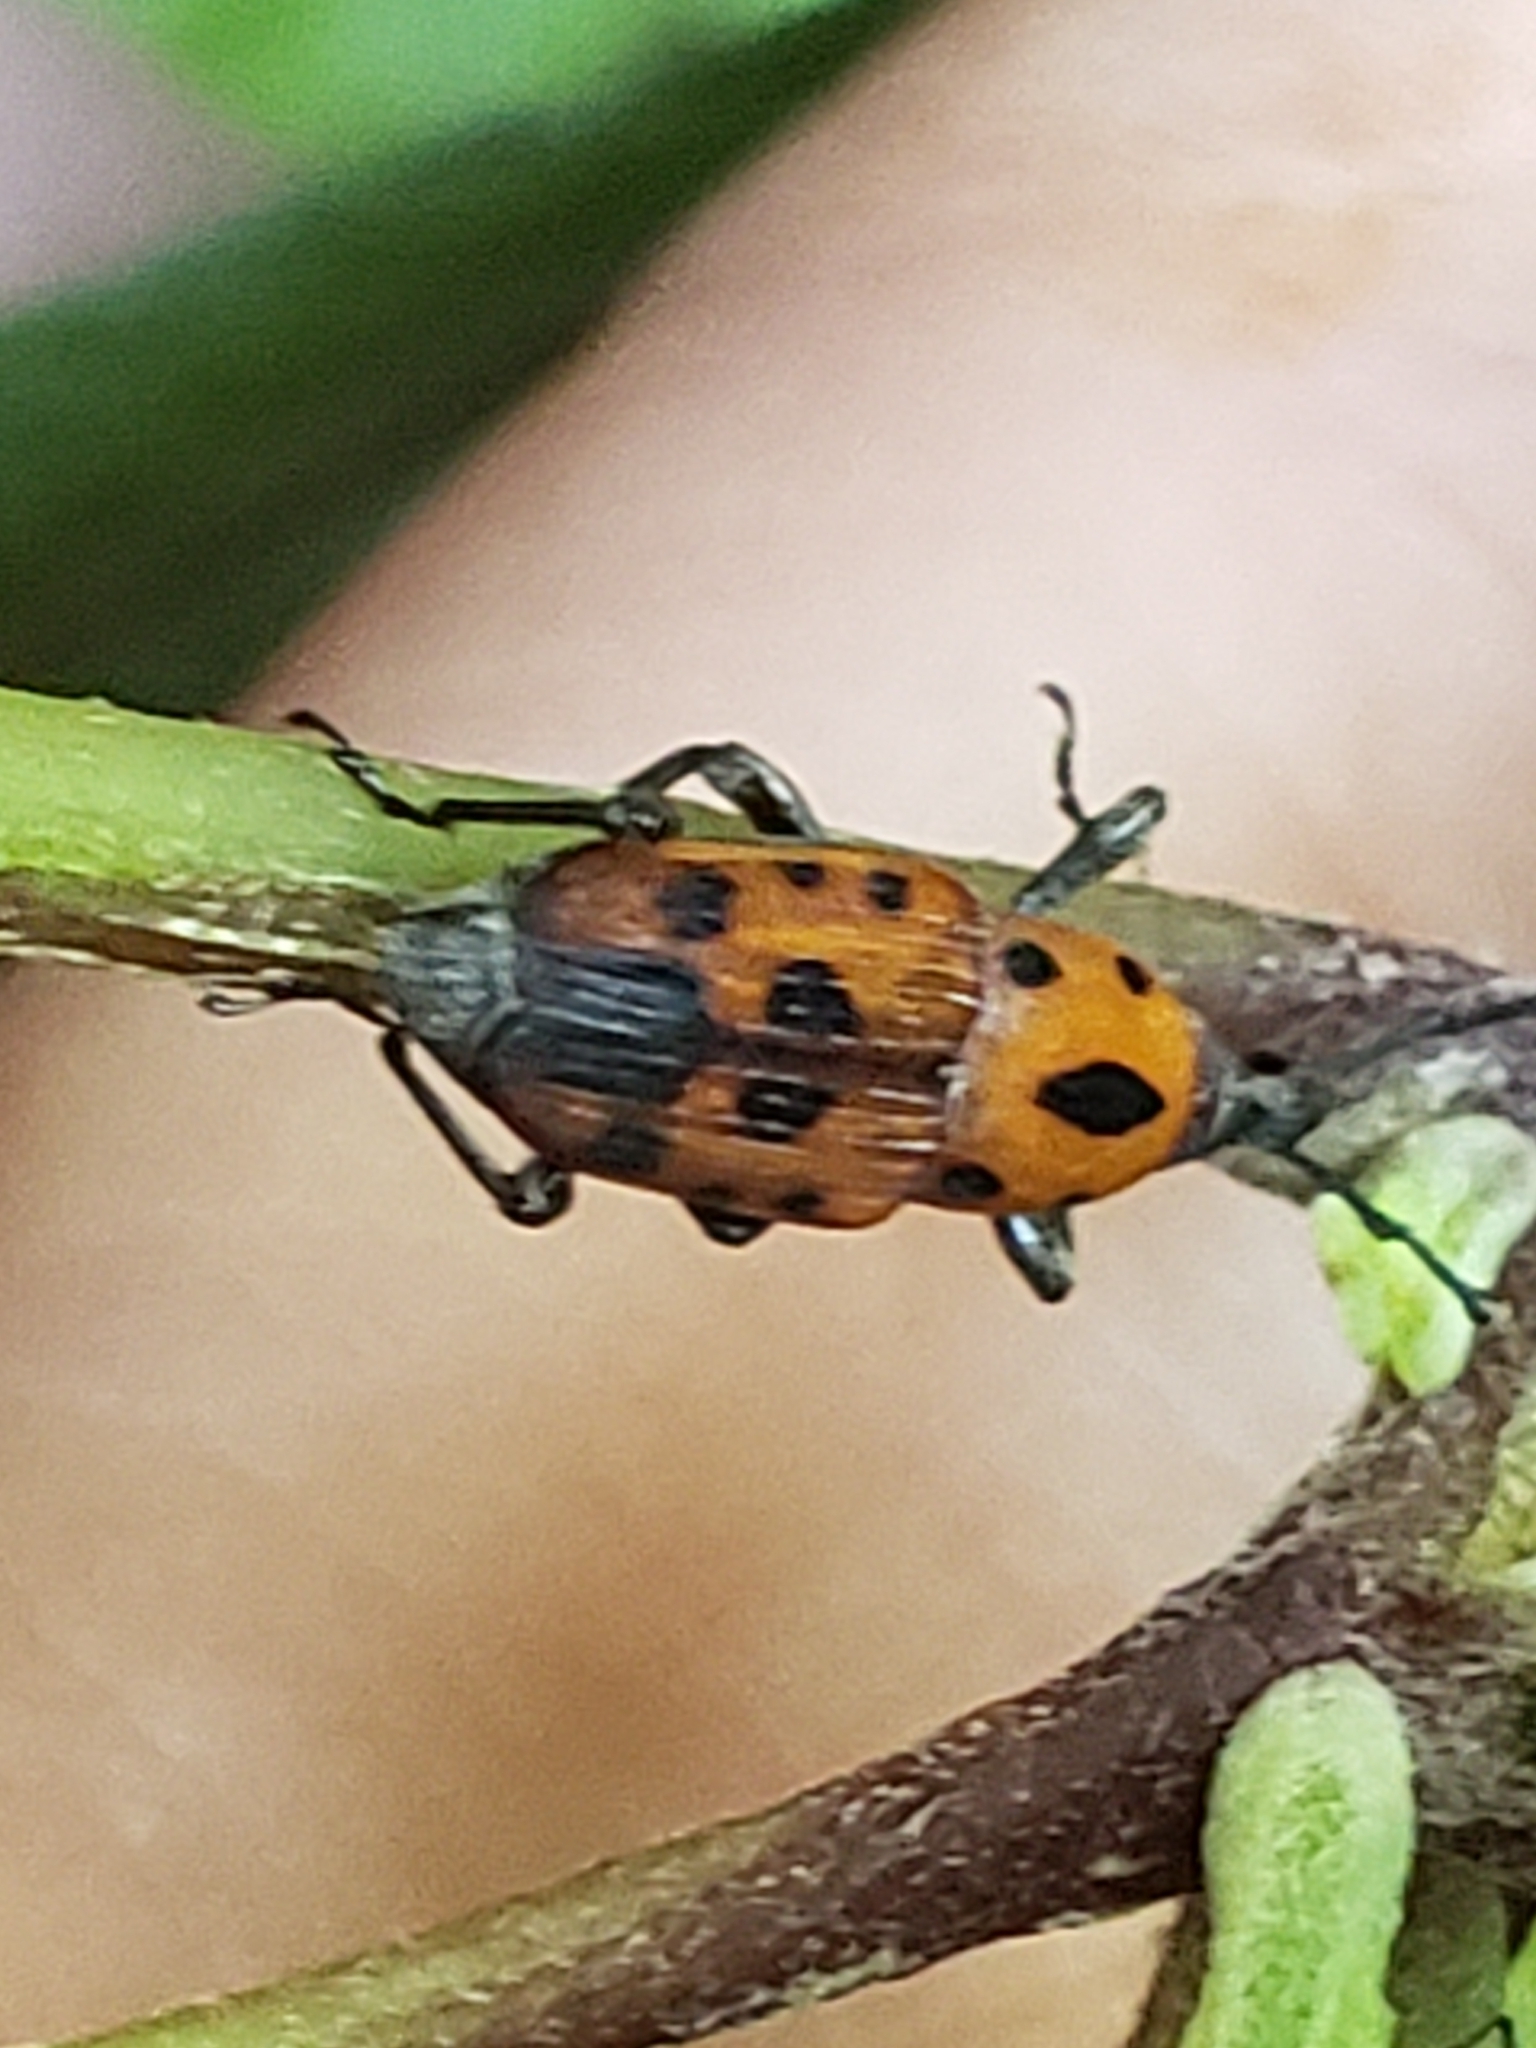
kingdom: Animalia
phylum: Arthropoda
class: Insecta
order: Coleoptera
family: Dryophthoridae
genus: Rhodobaenus
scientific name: Rhodobaenus quinquepunctatus
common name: Cocklebur weevil
